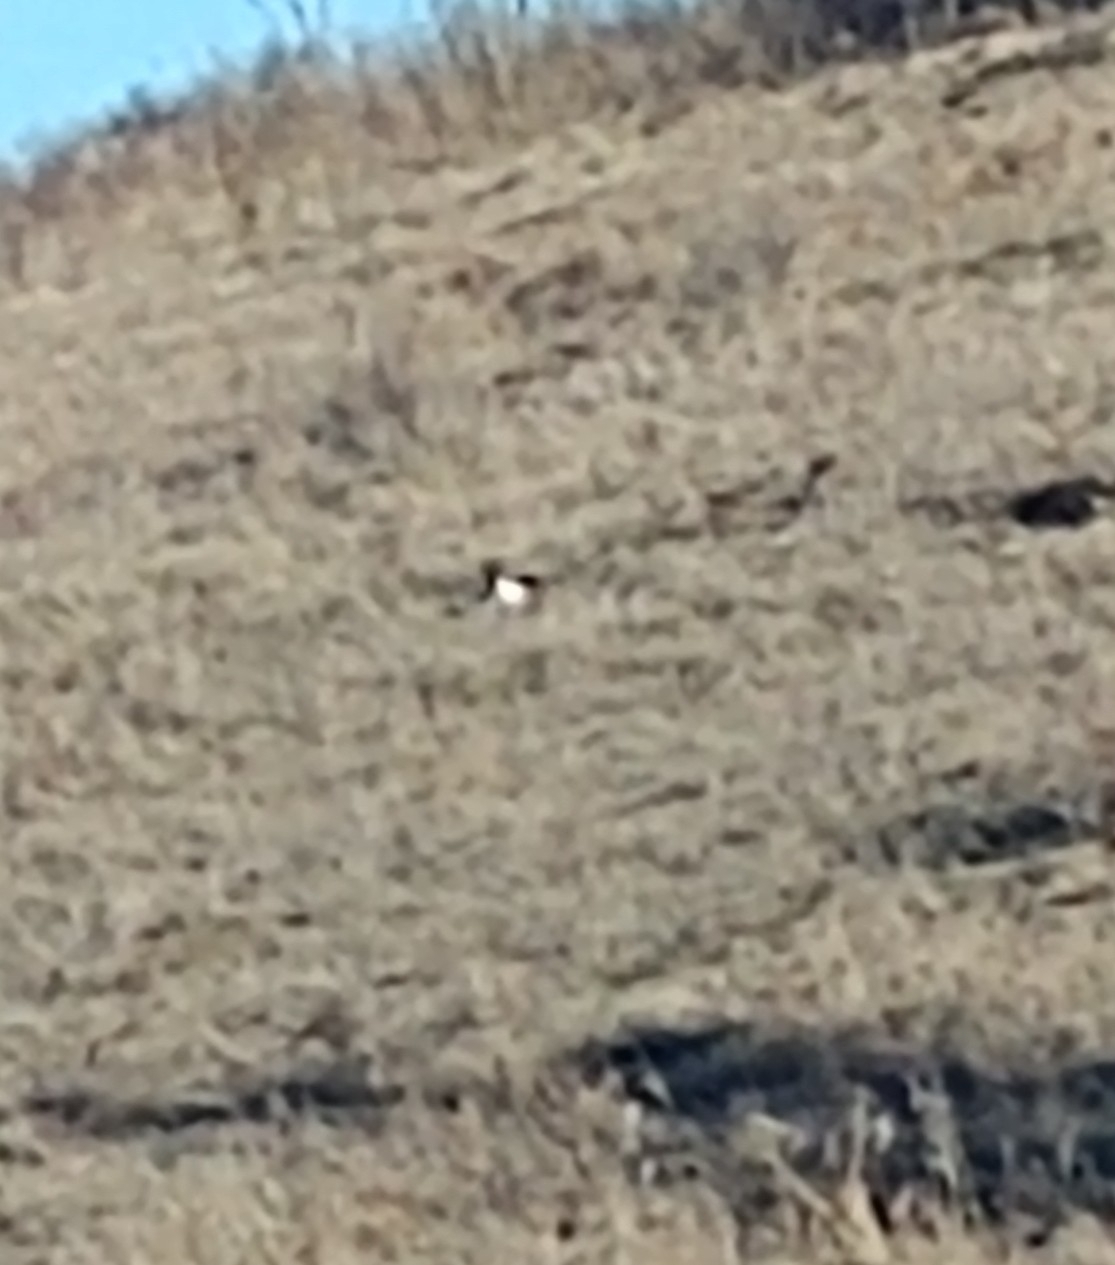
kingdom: Animalia
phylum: Chordata
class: Aves
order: Passeriformes
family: Corvidae
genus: Pica
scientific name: Pica hudsonia
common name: Black-billed magpie
